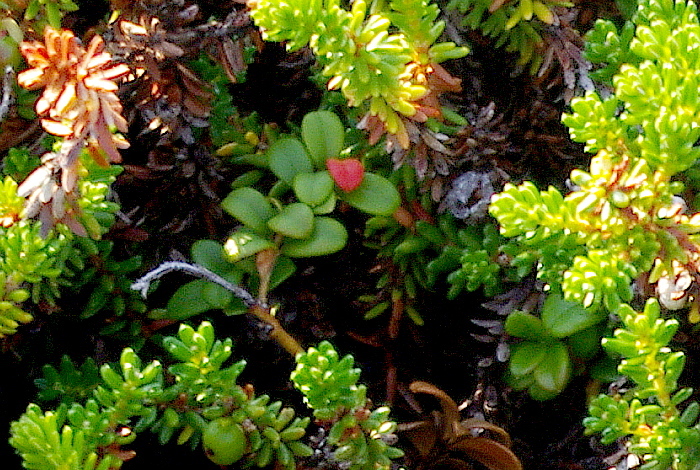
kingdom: Plantae
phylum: Tracheophyta
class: Magnoliopsida
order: Ericales
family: Ericaceae
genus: Vaccinium
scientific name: Vaccinium vitis-idaea
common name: Cowberry
